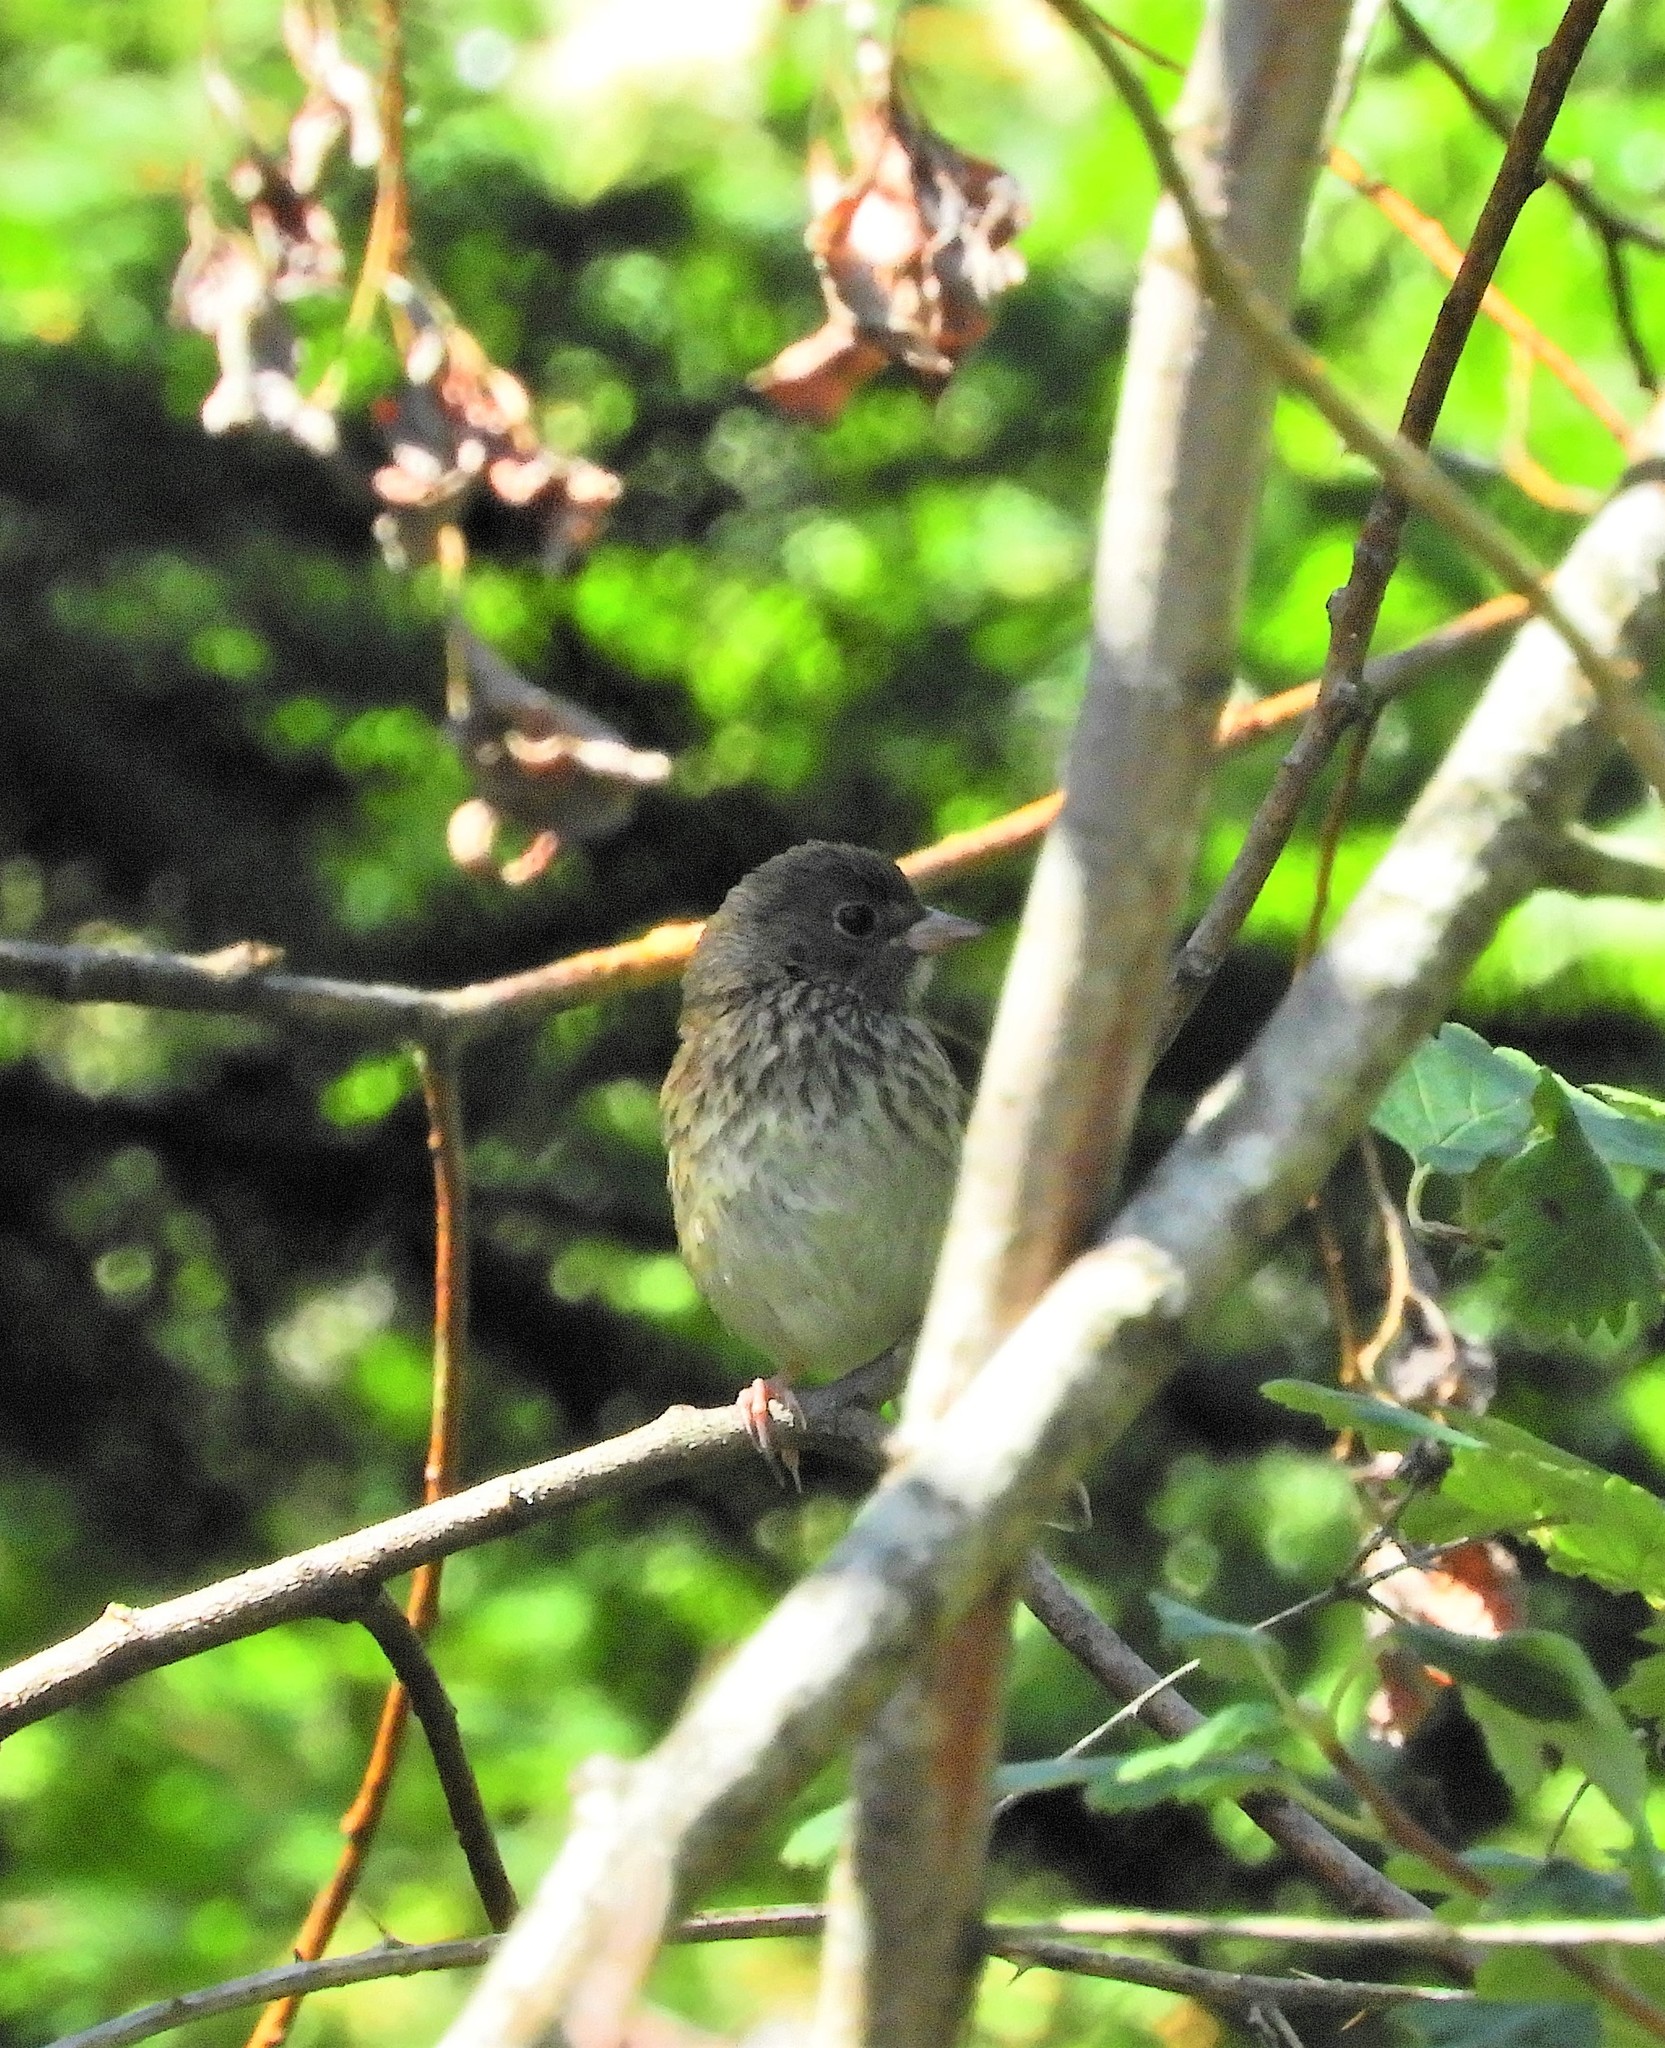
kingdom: Animalia
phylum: Chordata
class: Aves
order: Passeriformes
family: Passerellidae
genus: Junco
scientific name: Junco hyemalis
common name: Dark-eyed junco
